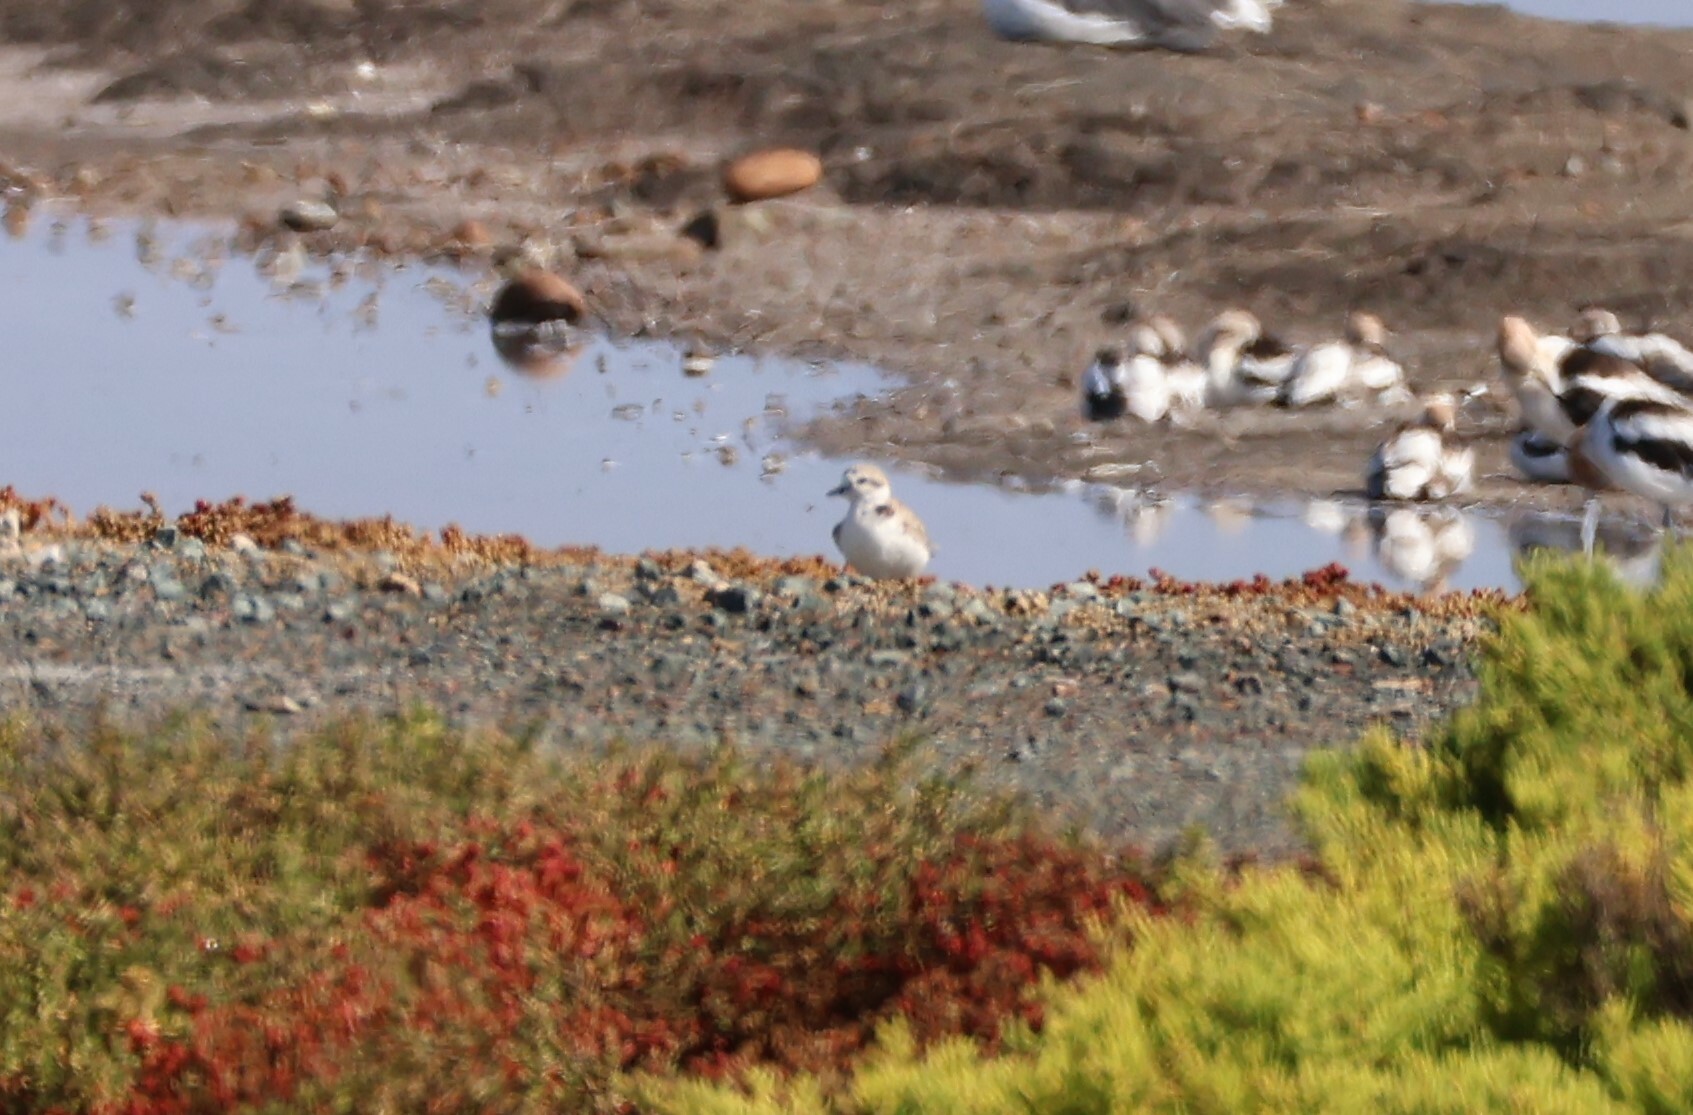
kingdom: Animalia
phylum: Chordata
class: Aves
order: Charadriiformes
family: Charadriidae
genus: Anarhynchus
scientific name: Anarhynchus
